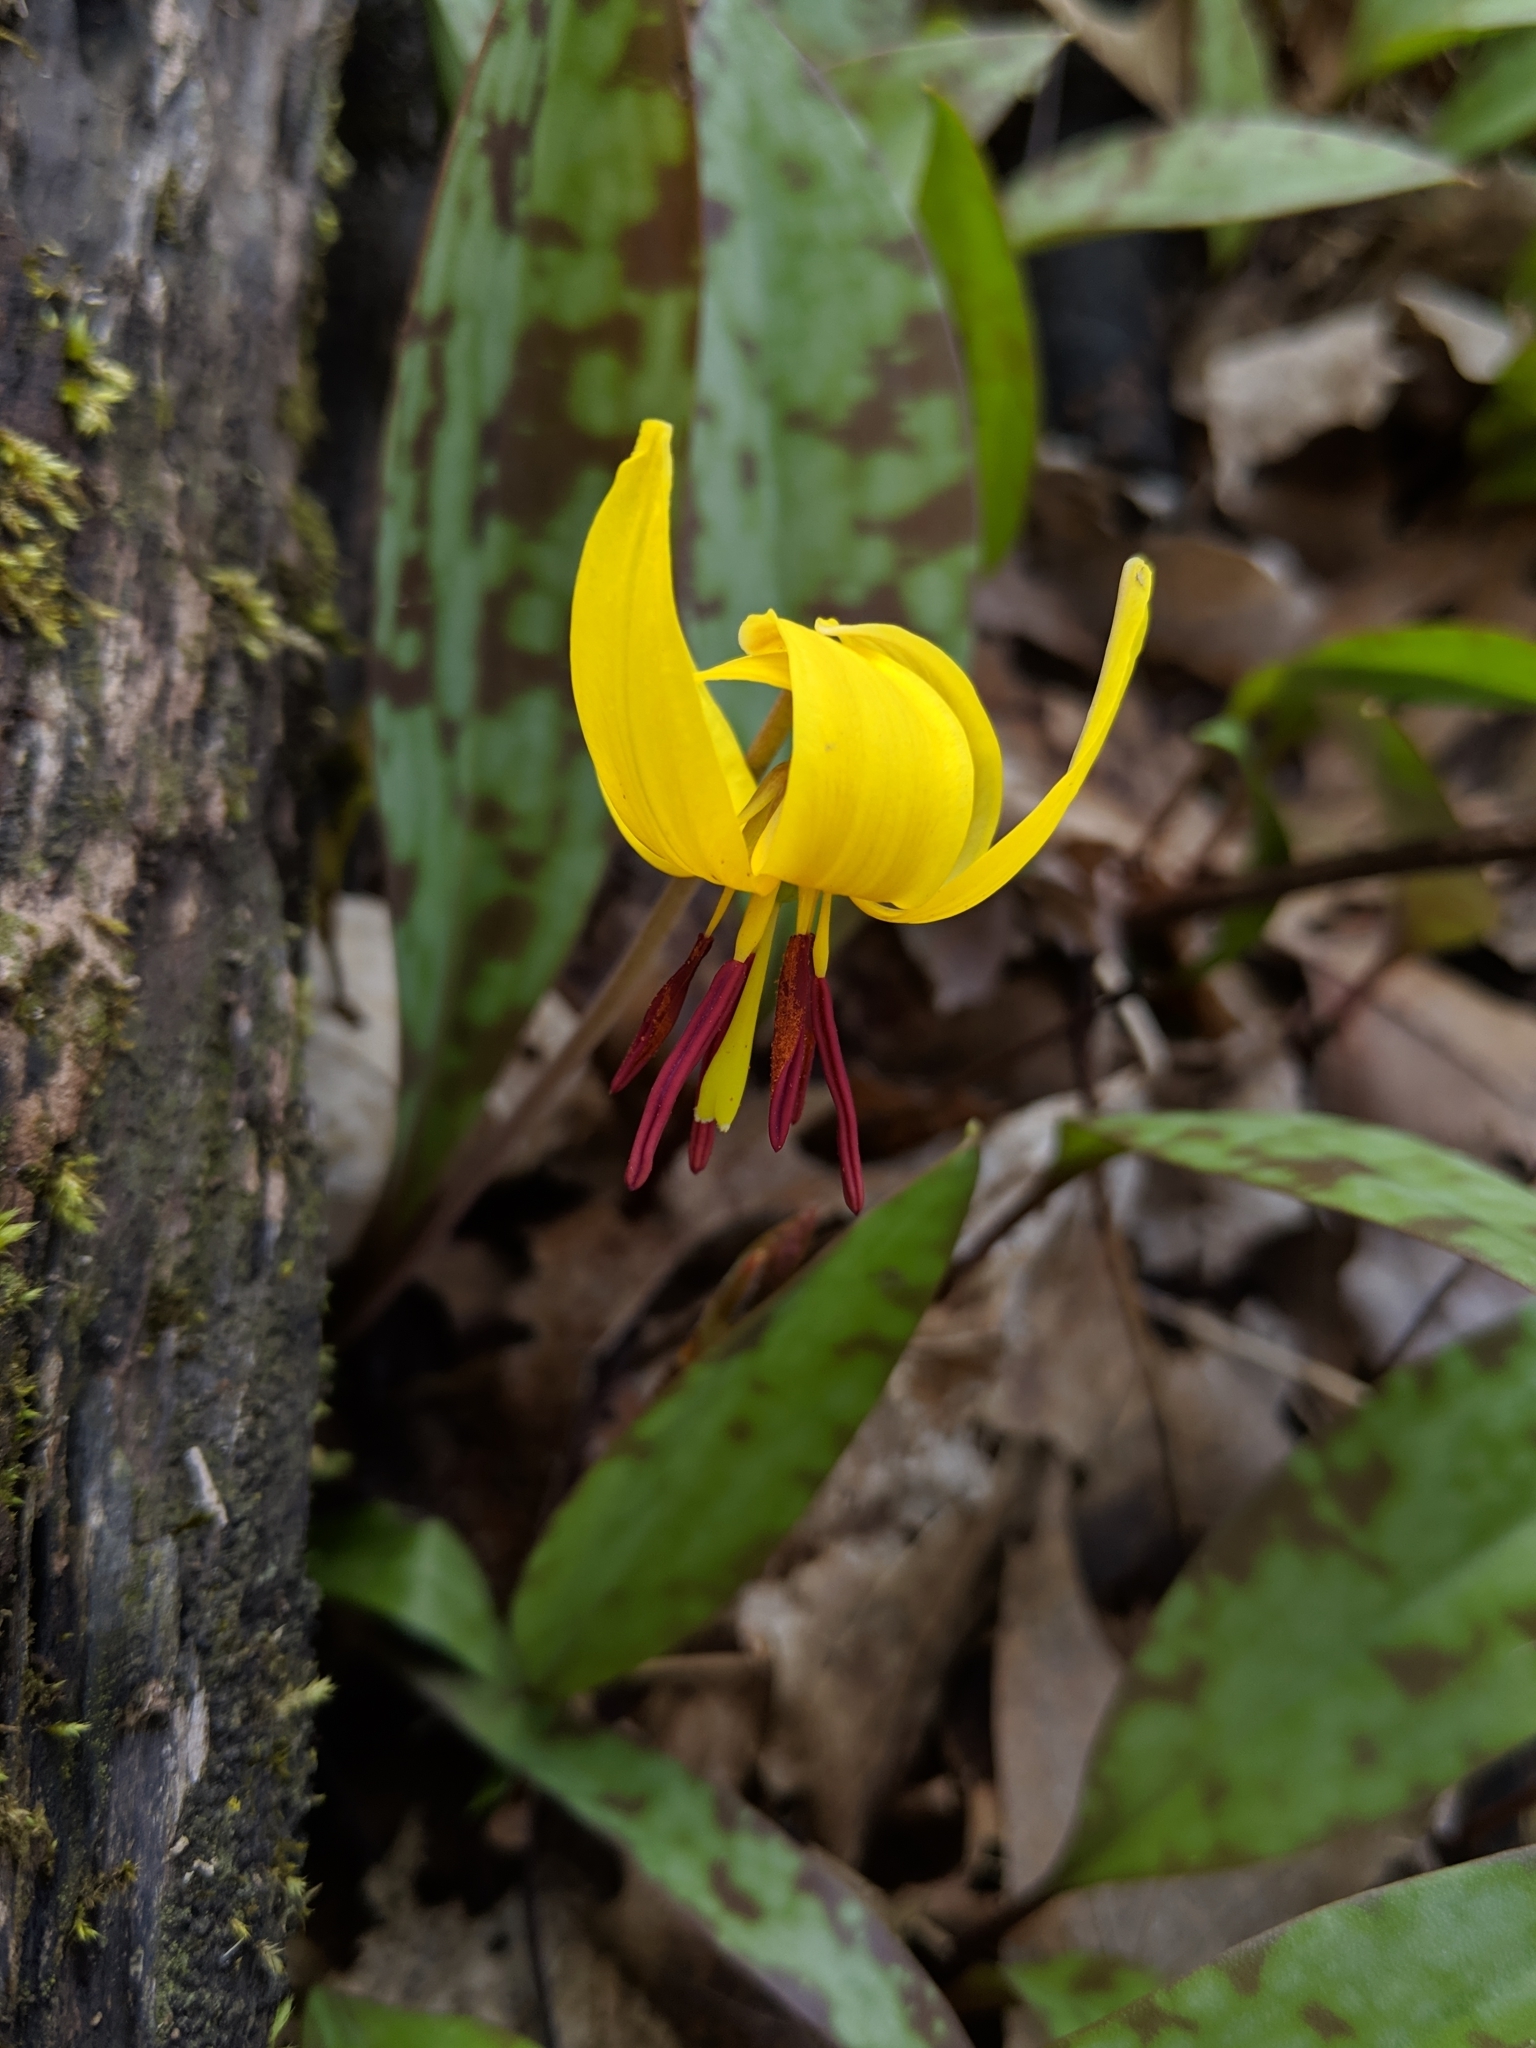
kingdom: Plantae
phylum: Tracheophyta
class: Liliopsida
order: Liliales
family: Liliaceae
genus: Erythronium
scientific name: Erythronium americanum
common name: Yellow adder's-tongue
